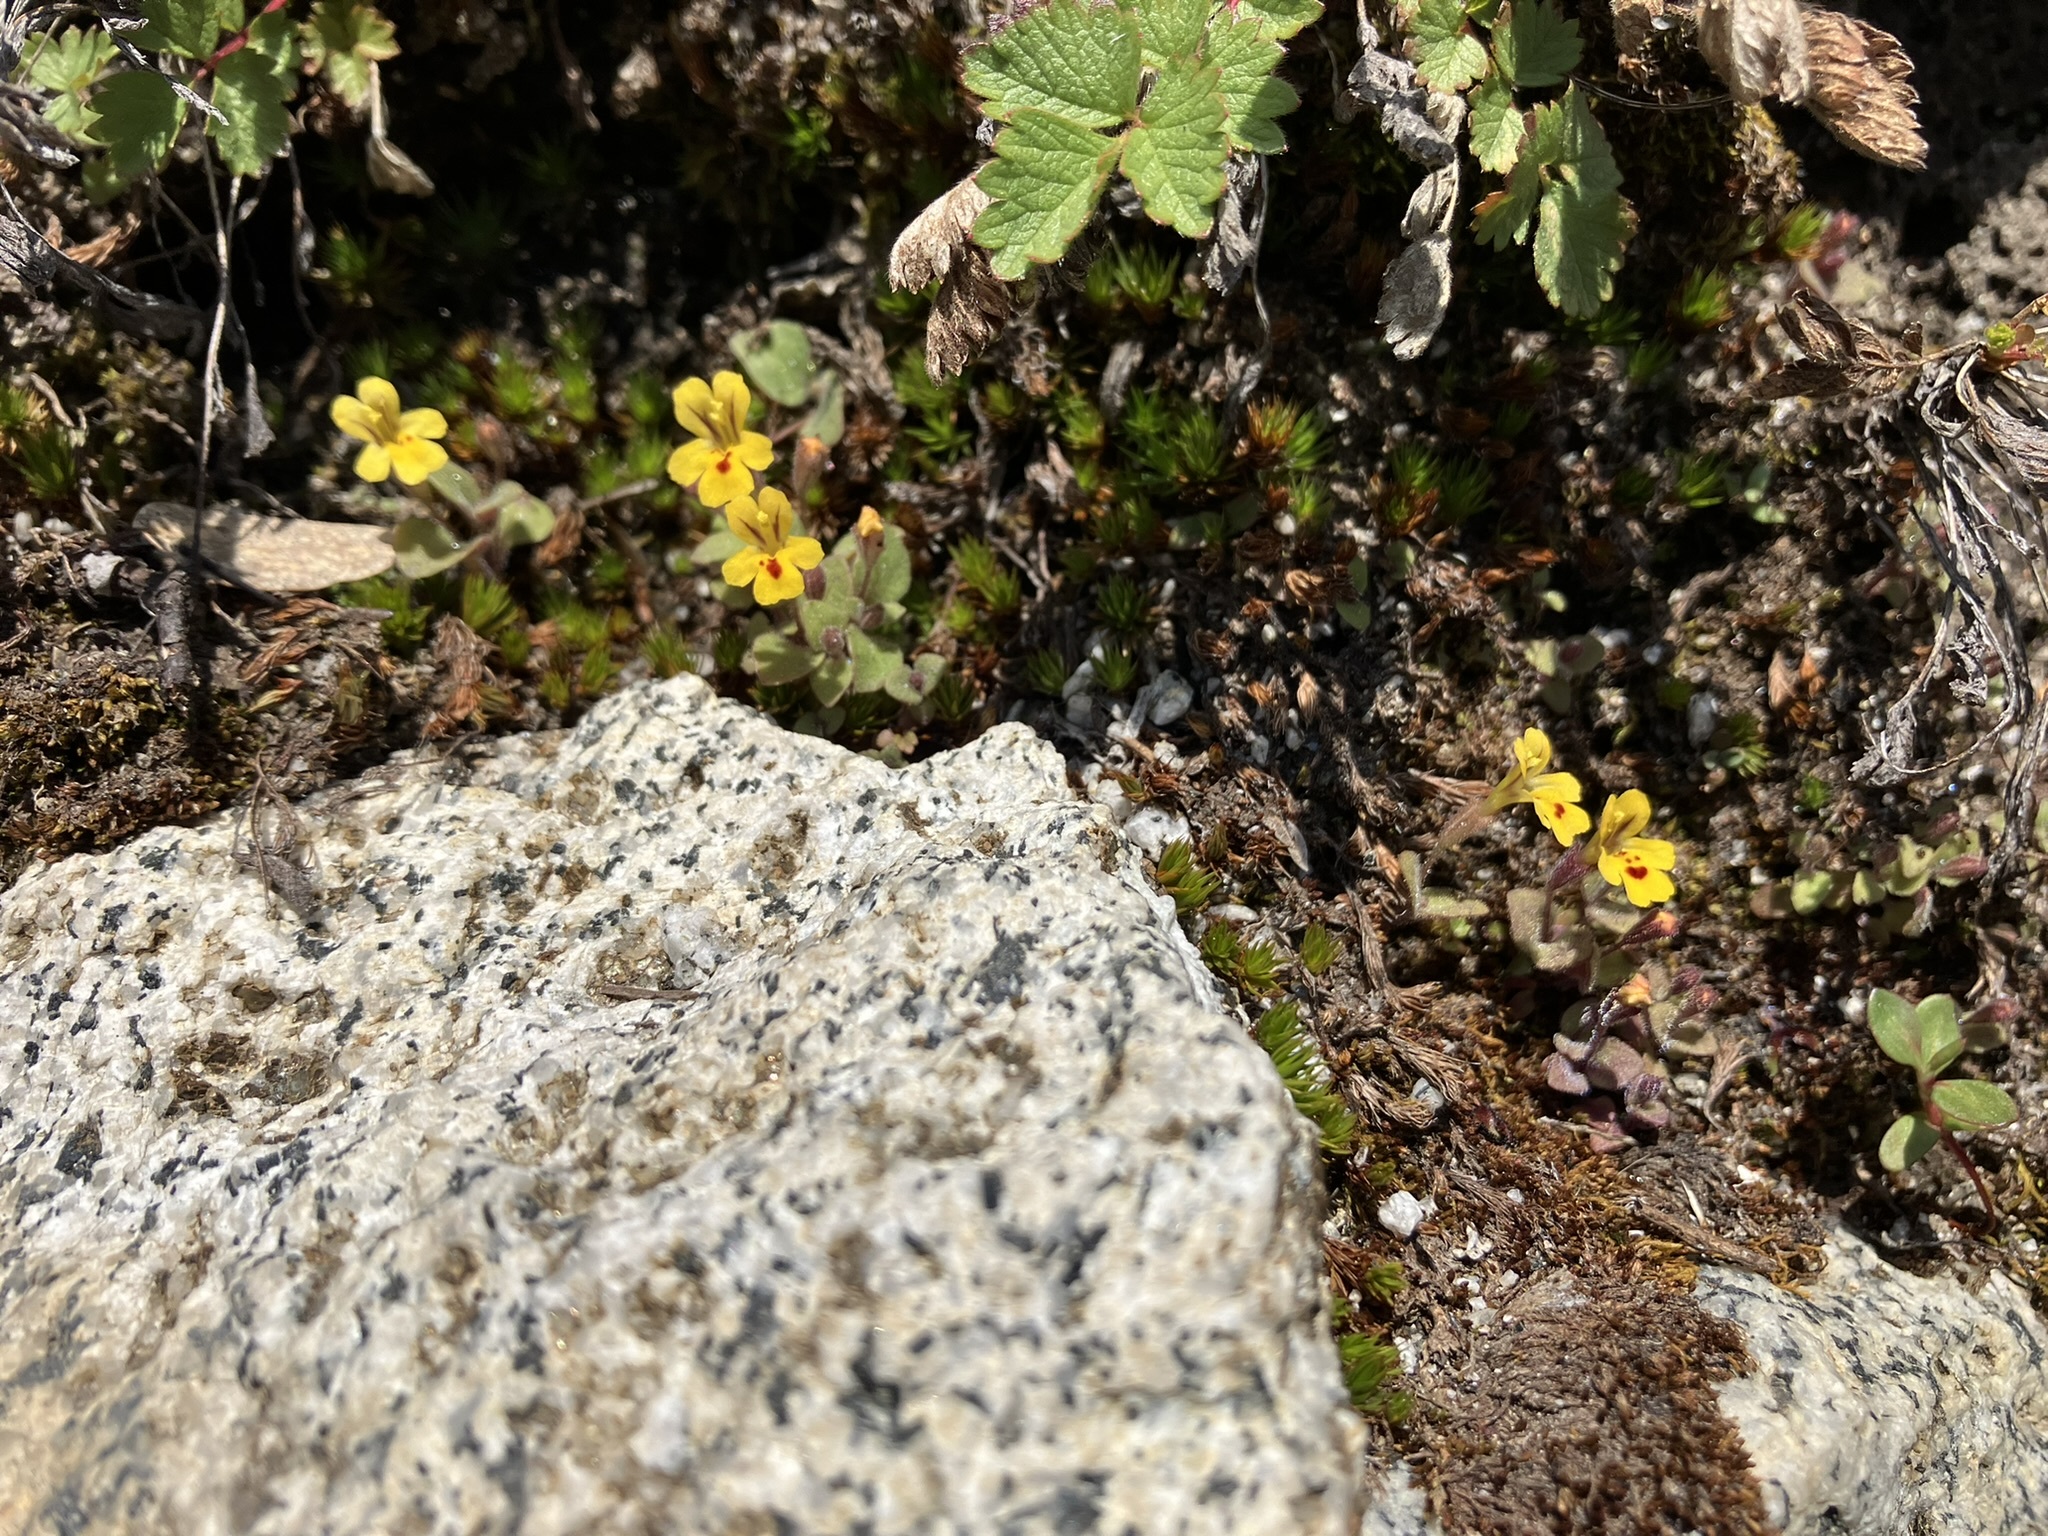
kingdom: Plantae
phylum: Tracheophyta
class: Magnoliopsida
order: Lamiales
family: Phrymaceae
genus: Erythranthe
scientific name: Erythranthe alsinoides
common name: Chickweed monkeyflower
